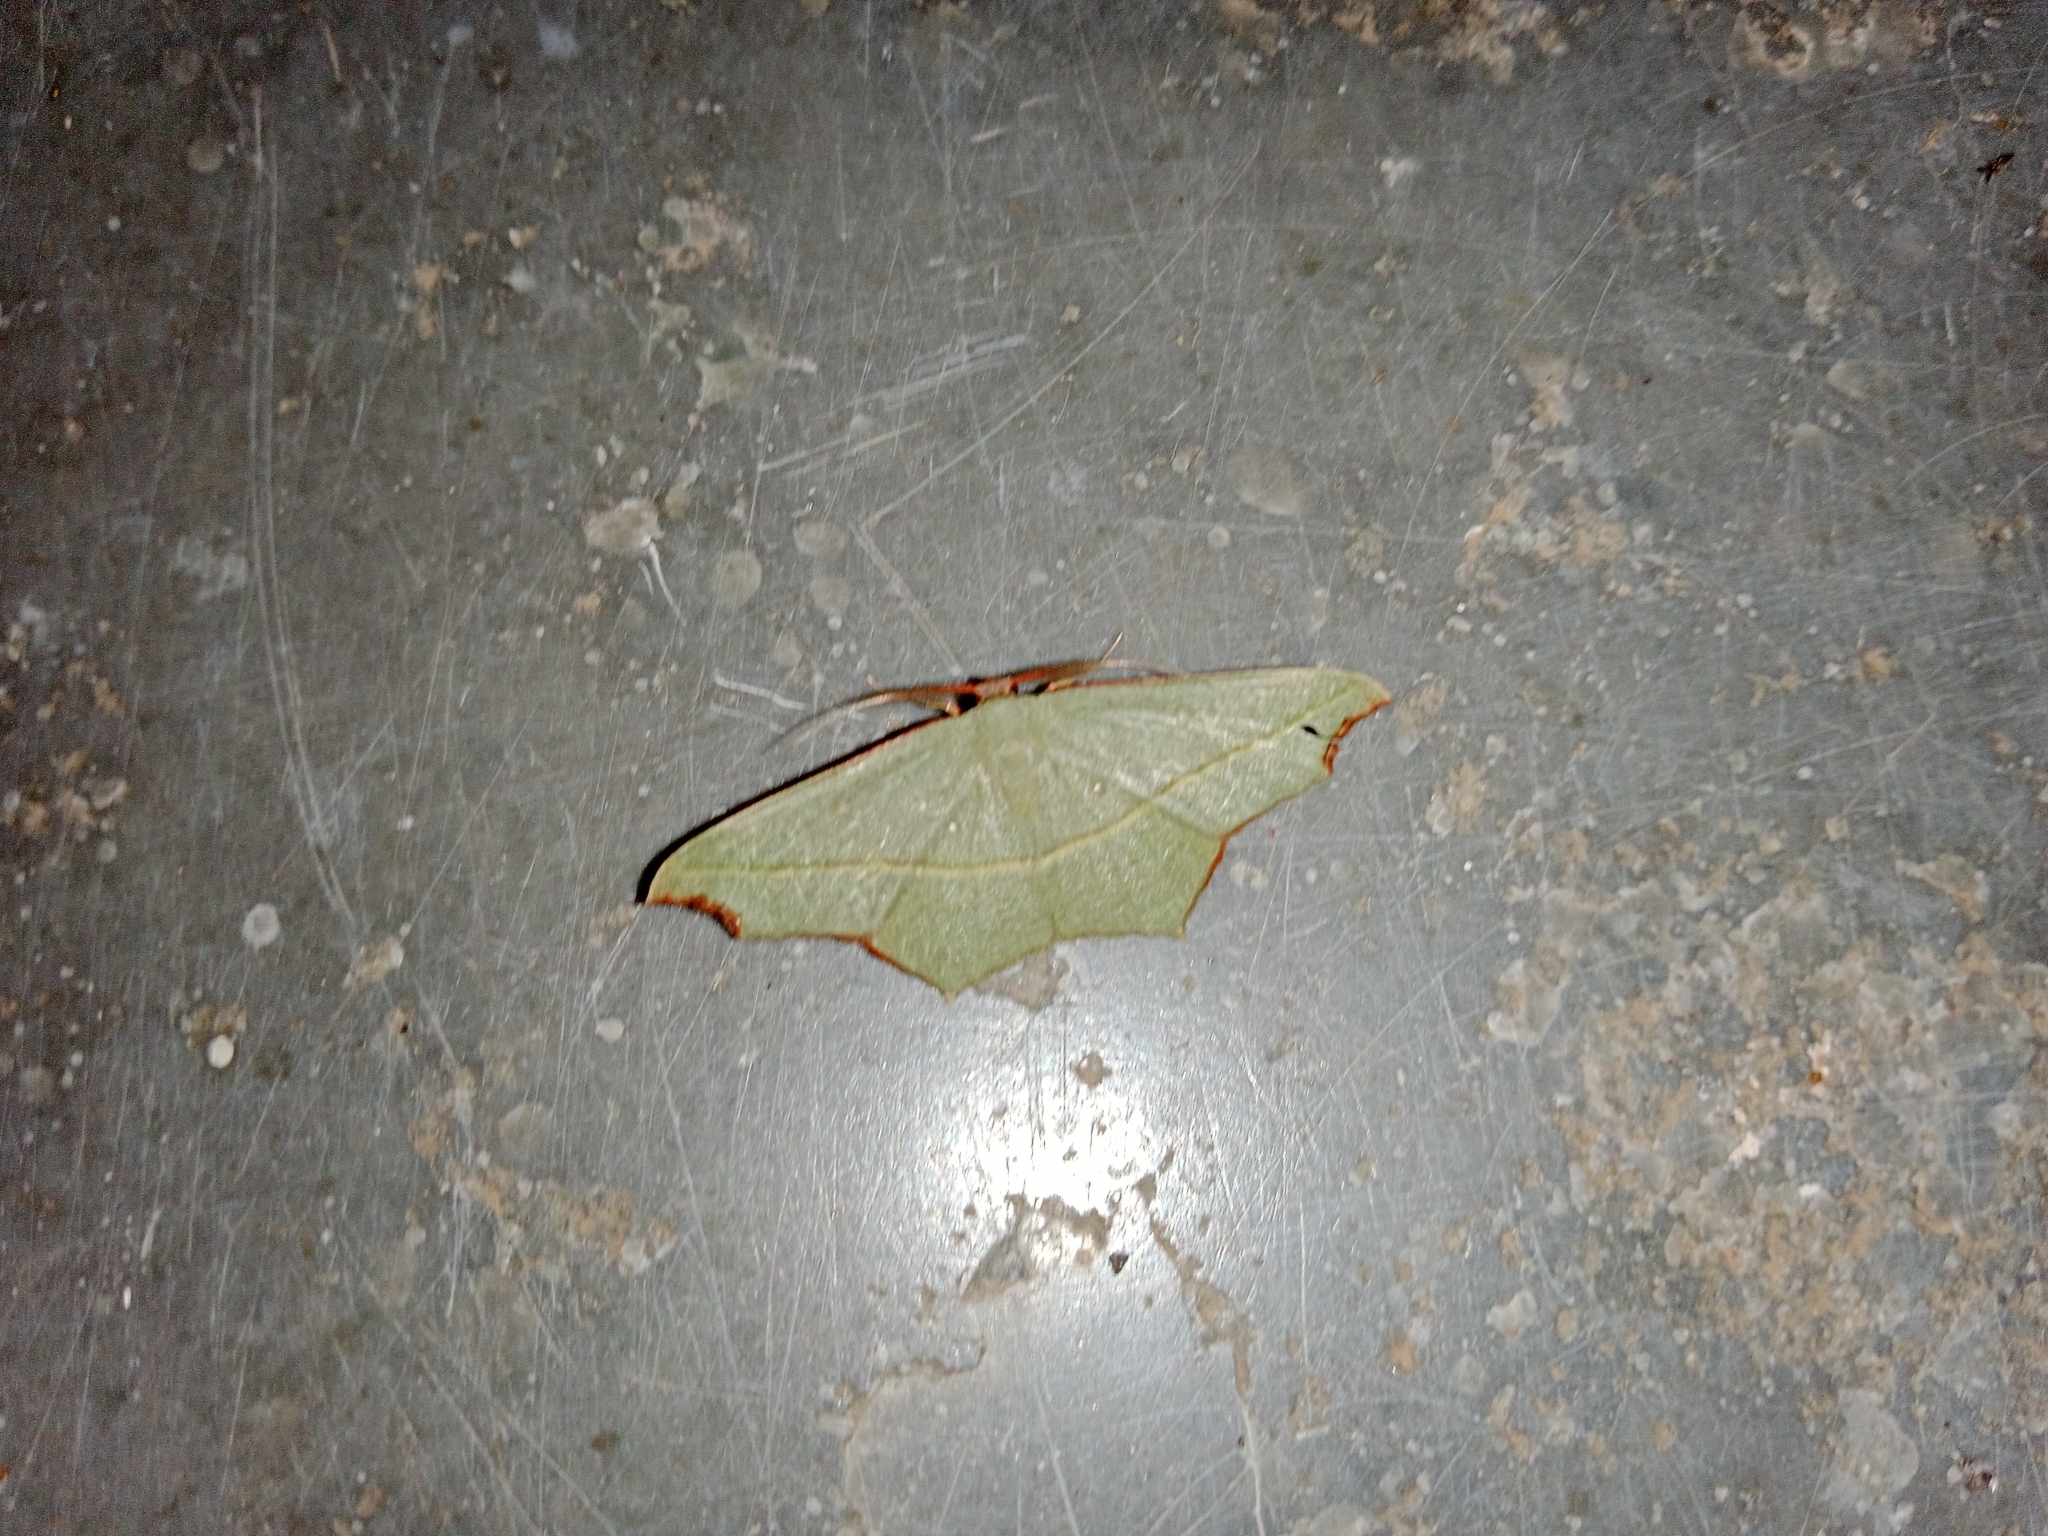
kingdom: Animalia
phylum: Arthropoda
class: Insecta
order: Lepidoptera
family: Geometridae
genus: Traminda
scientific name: Traminda aventiaria
